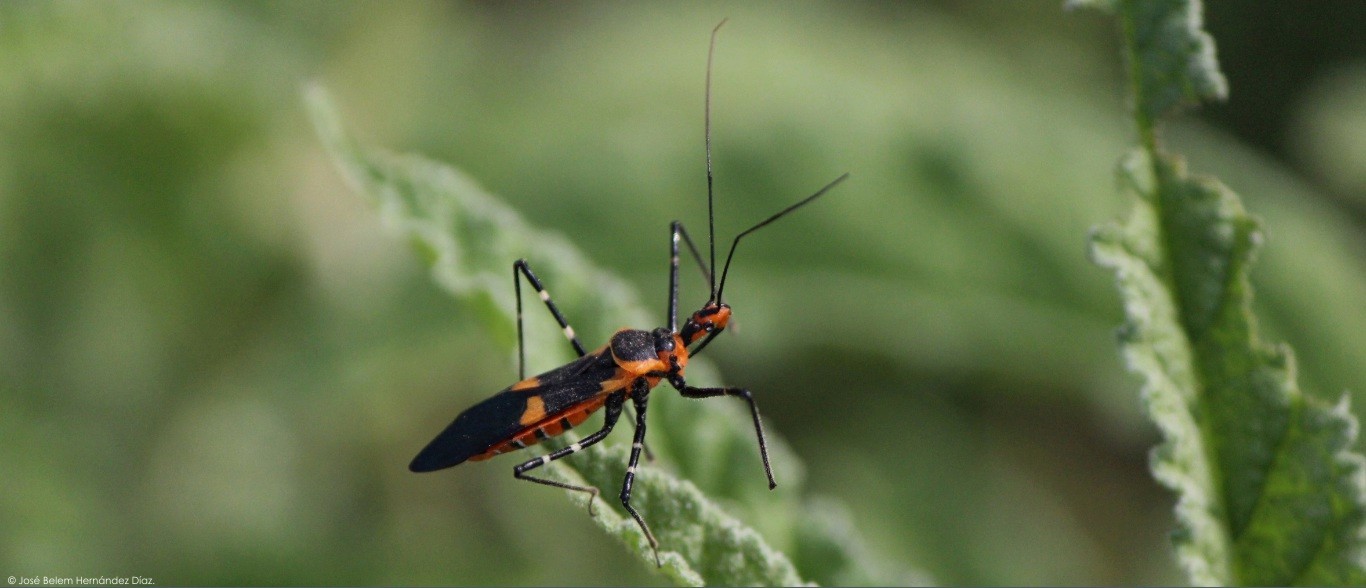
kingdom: Animalia
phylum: Arthropoda
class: Insecta
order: Hemiptera
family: Reduviidae
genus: Zelus
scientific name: Zelus longipes
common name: Milkweed assassin bug
